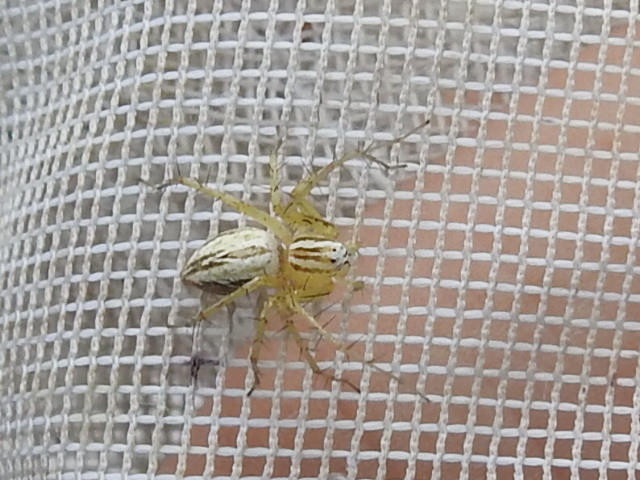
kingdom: Animalia
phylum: Arthropoda
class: Arachnida
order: Araneae
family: Oxyopidae
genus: Oxyopes
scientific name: Oxyopes salticus
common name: Lynx spiders
